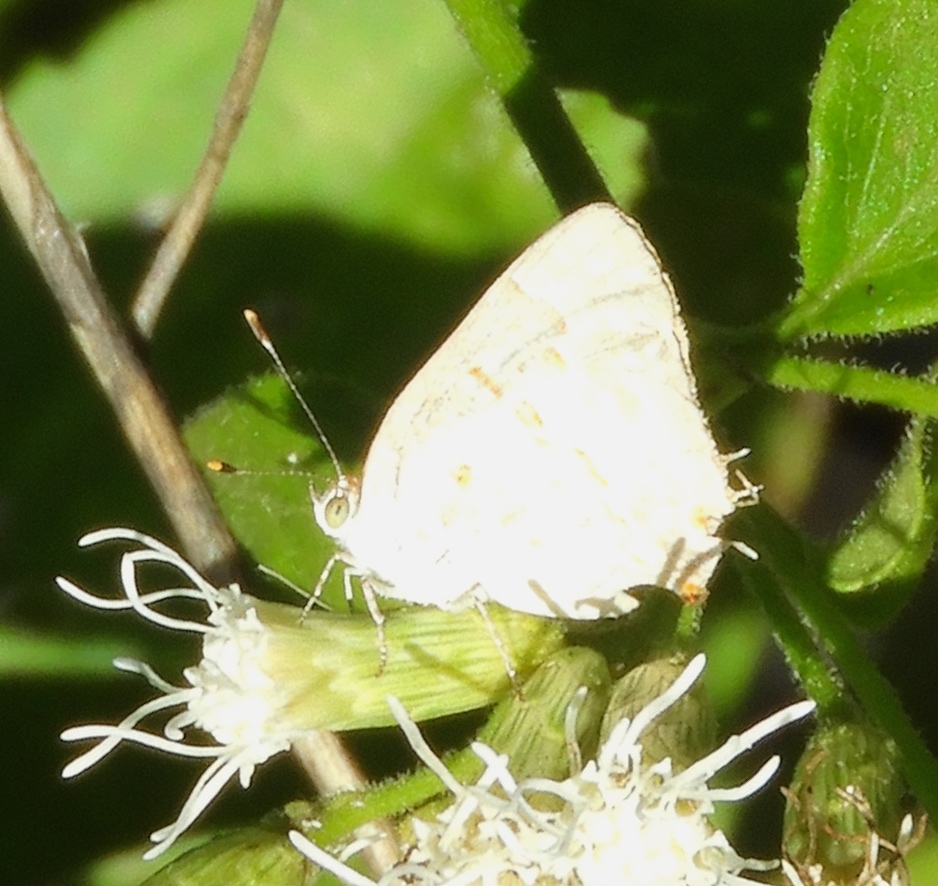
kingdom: Animalia
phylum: Arthropoda
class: Insecta
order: Lepidoptera
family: Lycaenidae
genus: Ministrymon
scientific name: Ministrymon clytie
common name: Clytie ministreak
